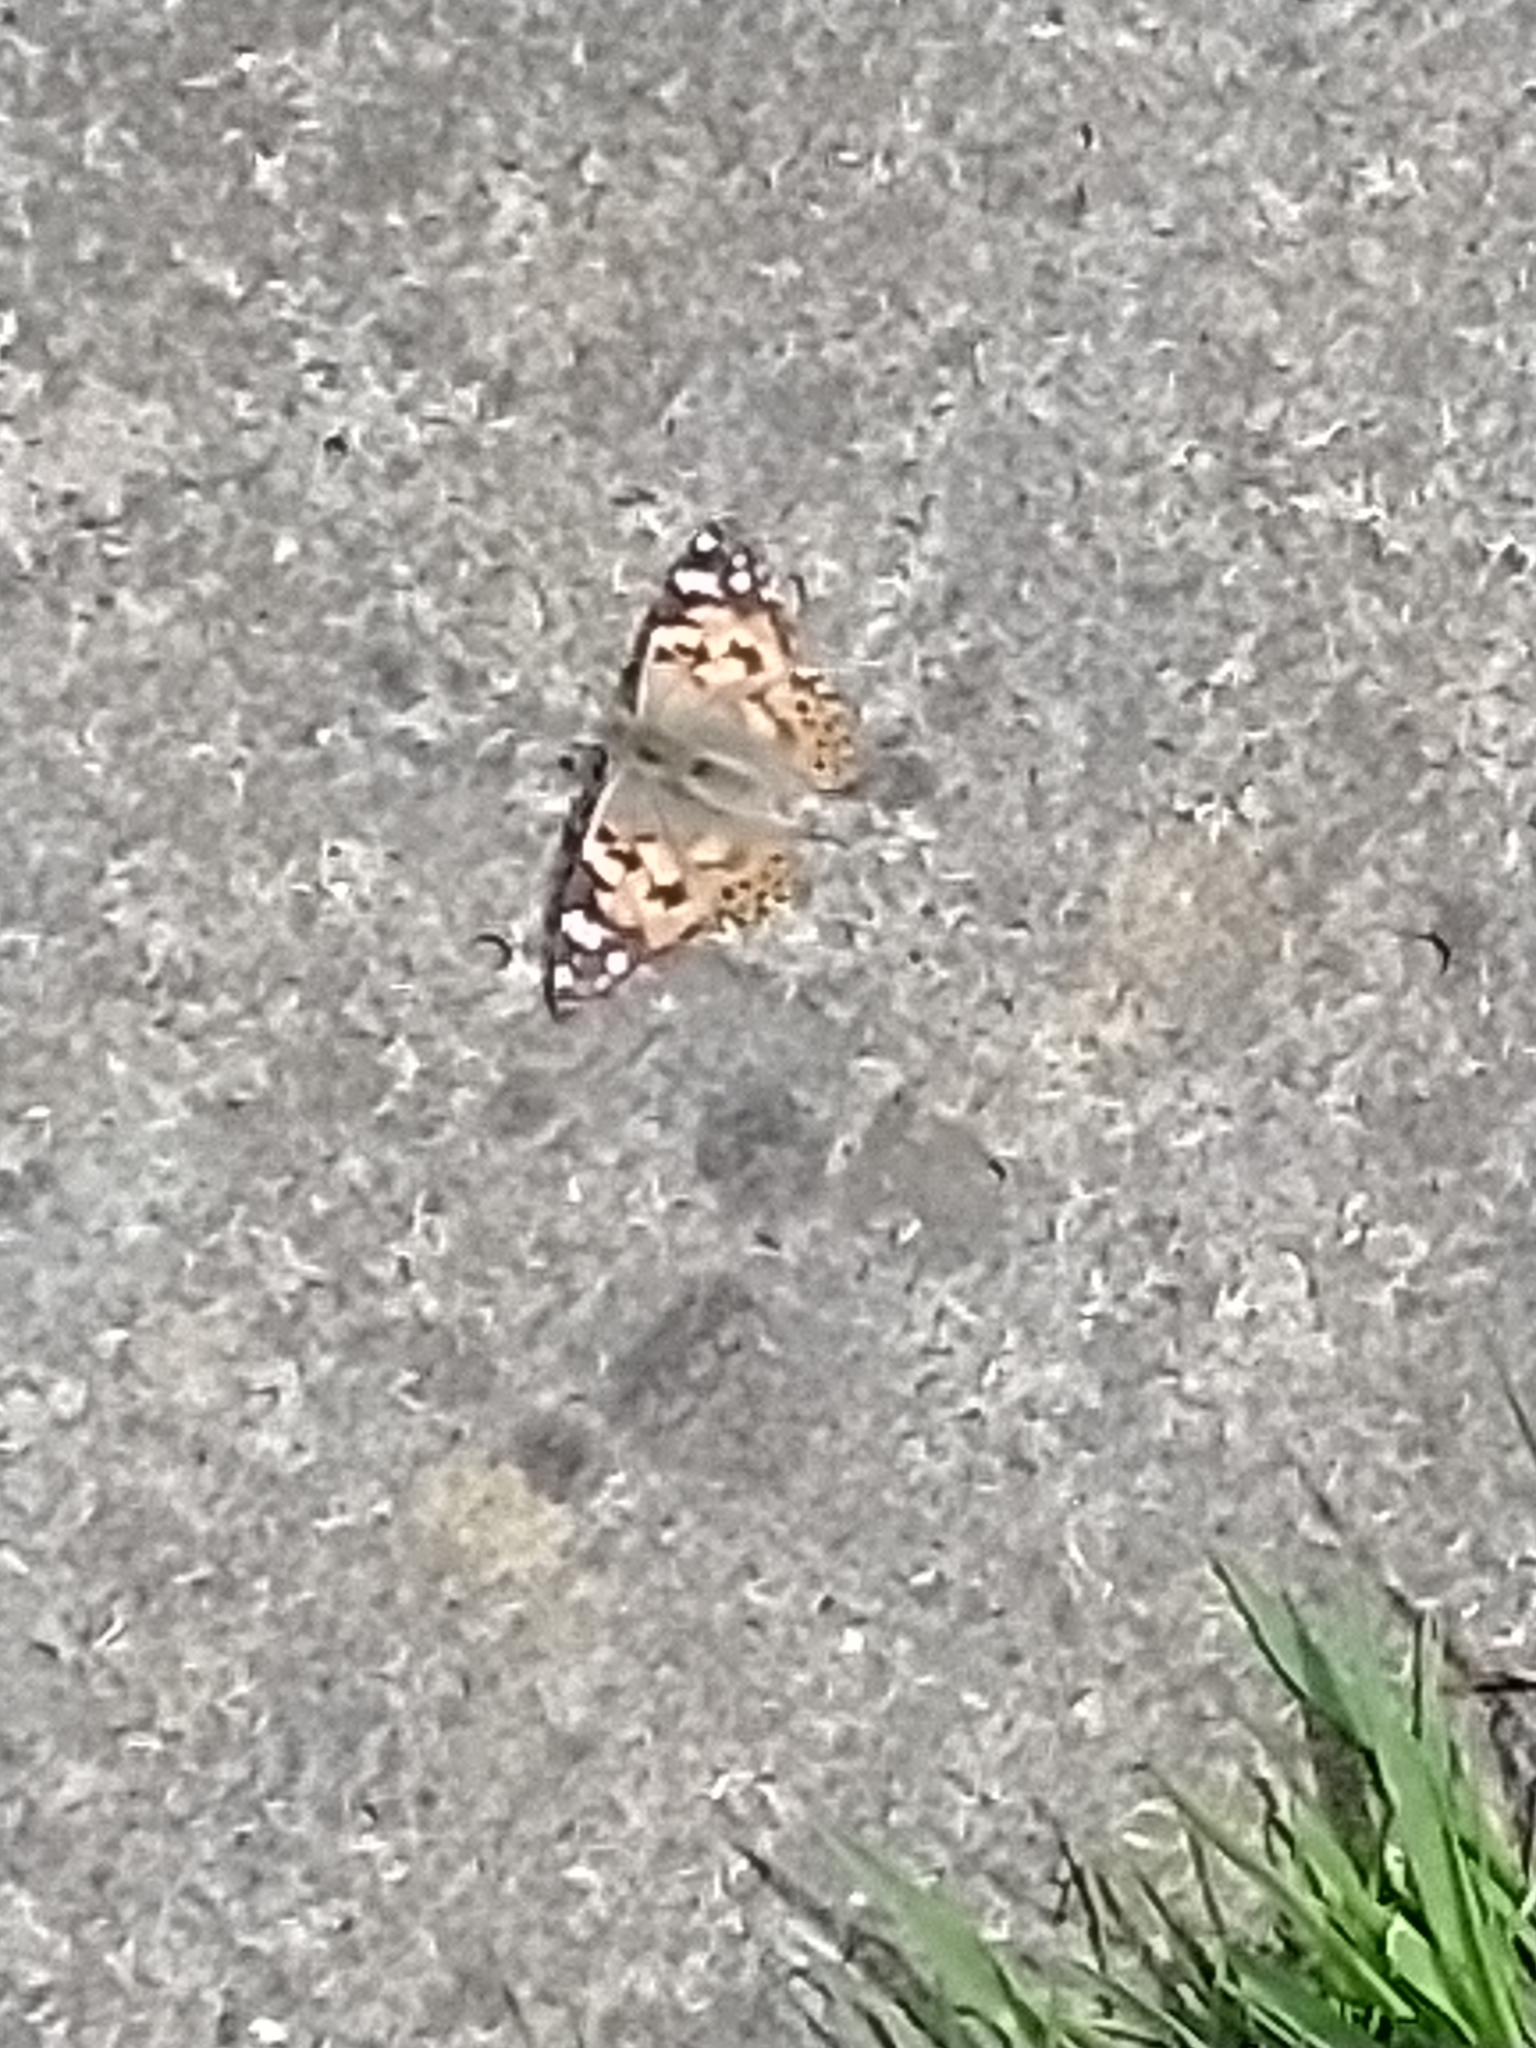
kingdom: Animalia
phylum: Arthropoda
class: Insecta
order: Lepidoptera
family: Nymphalidae
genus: Vanessa
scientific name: Vanessa cardui
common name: Painted lady
